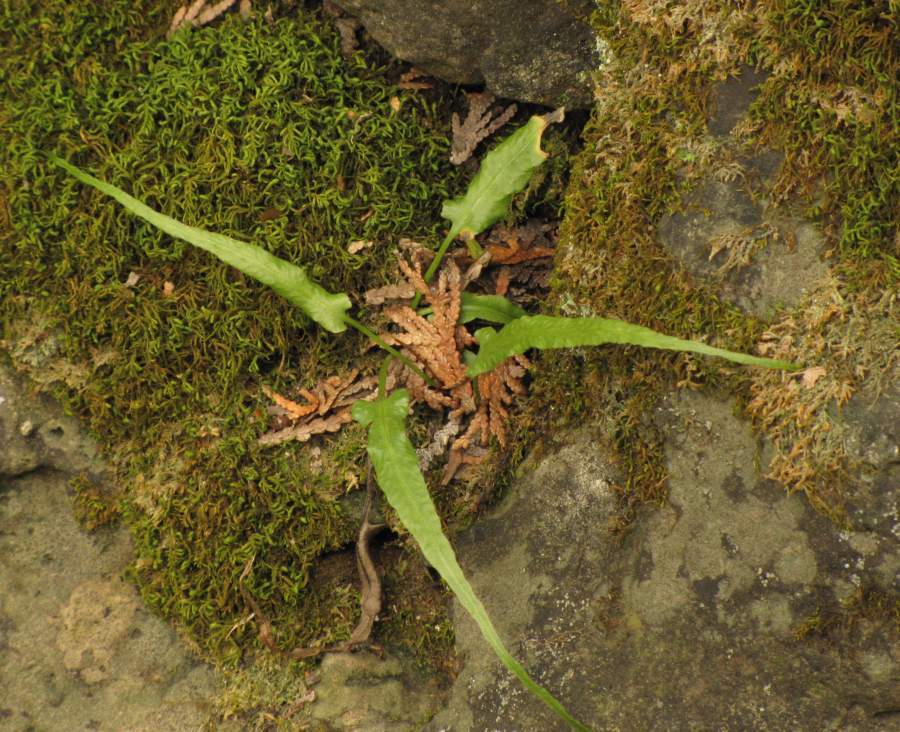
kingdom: Plantae
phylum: Tracheophyta
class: Polypodiopsida
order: Polypodiales
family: Aspleniaceae
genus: Asplenium
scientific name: Asplenium rhizophyllum
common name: Walking fern
